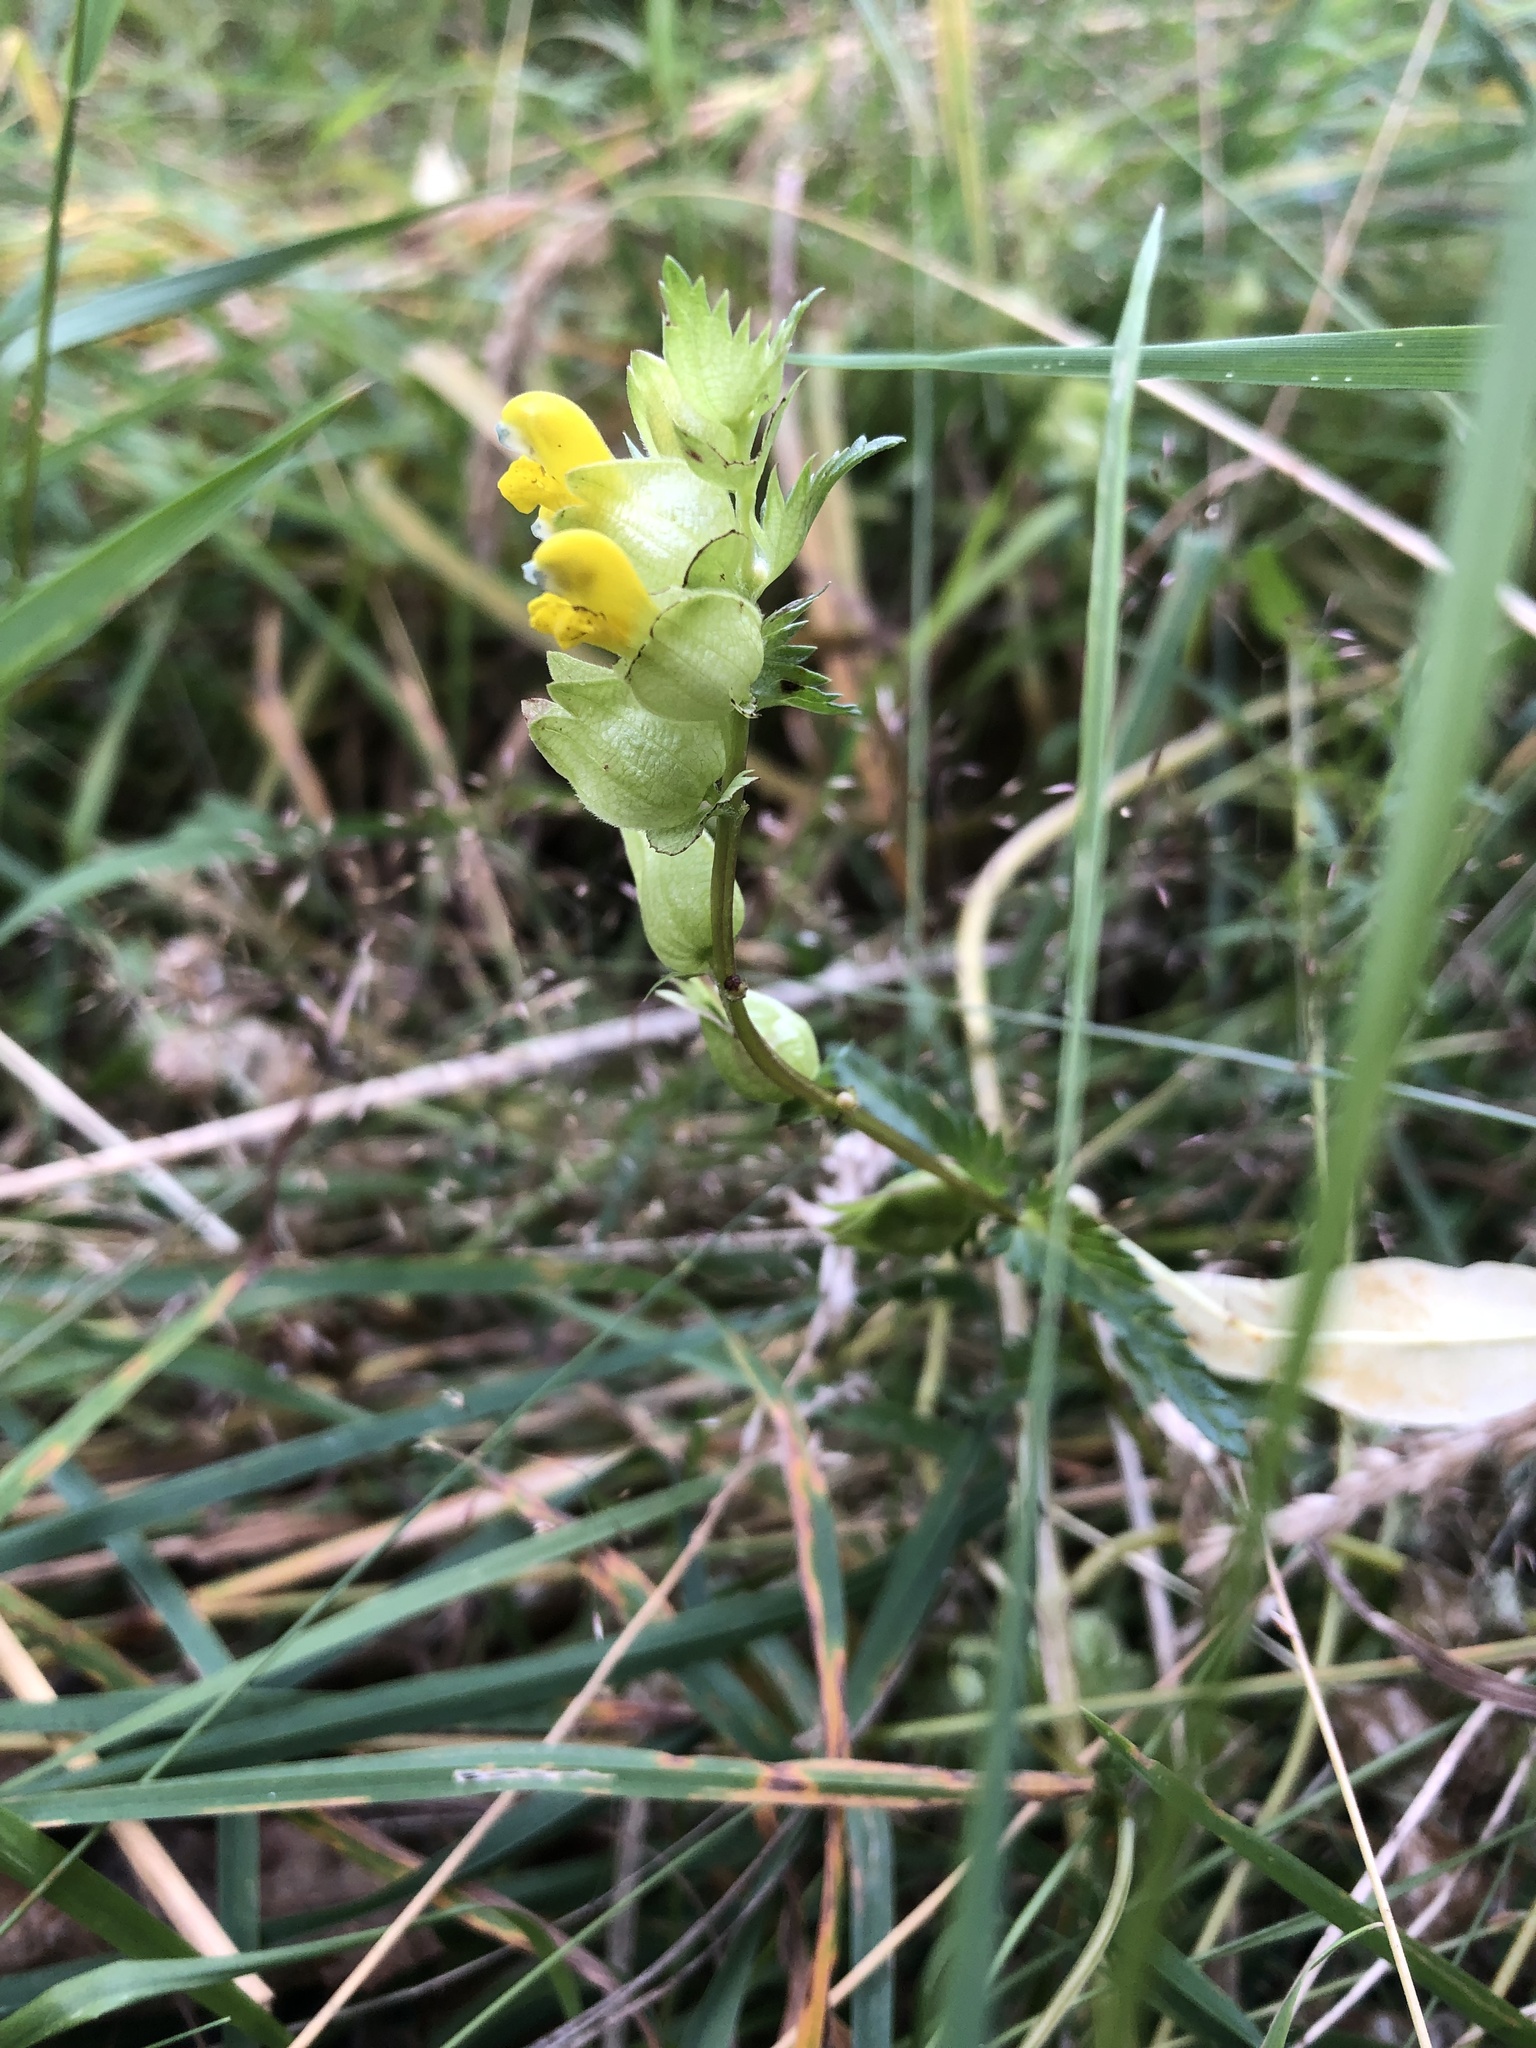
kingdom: Plantae
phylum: Tracheophyta
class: Magnoliopsida
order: Lamiales
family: Orobanchaceae
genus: Rhinanthus
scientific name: Rhinanthus minor
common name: Yellow-rattle
